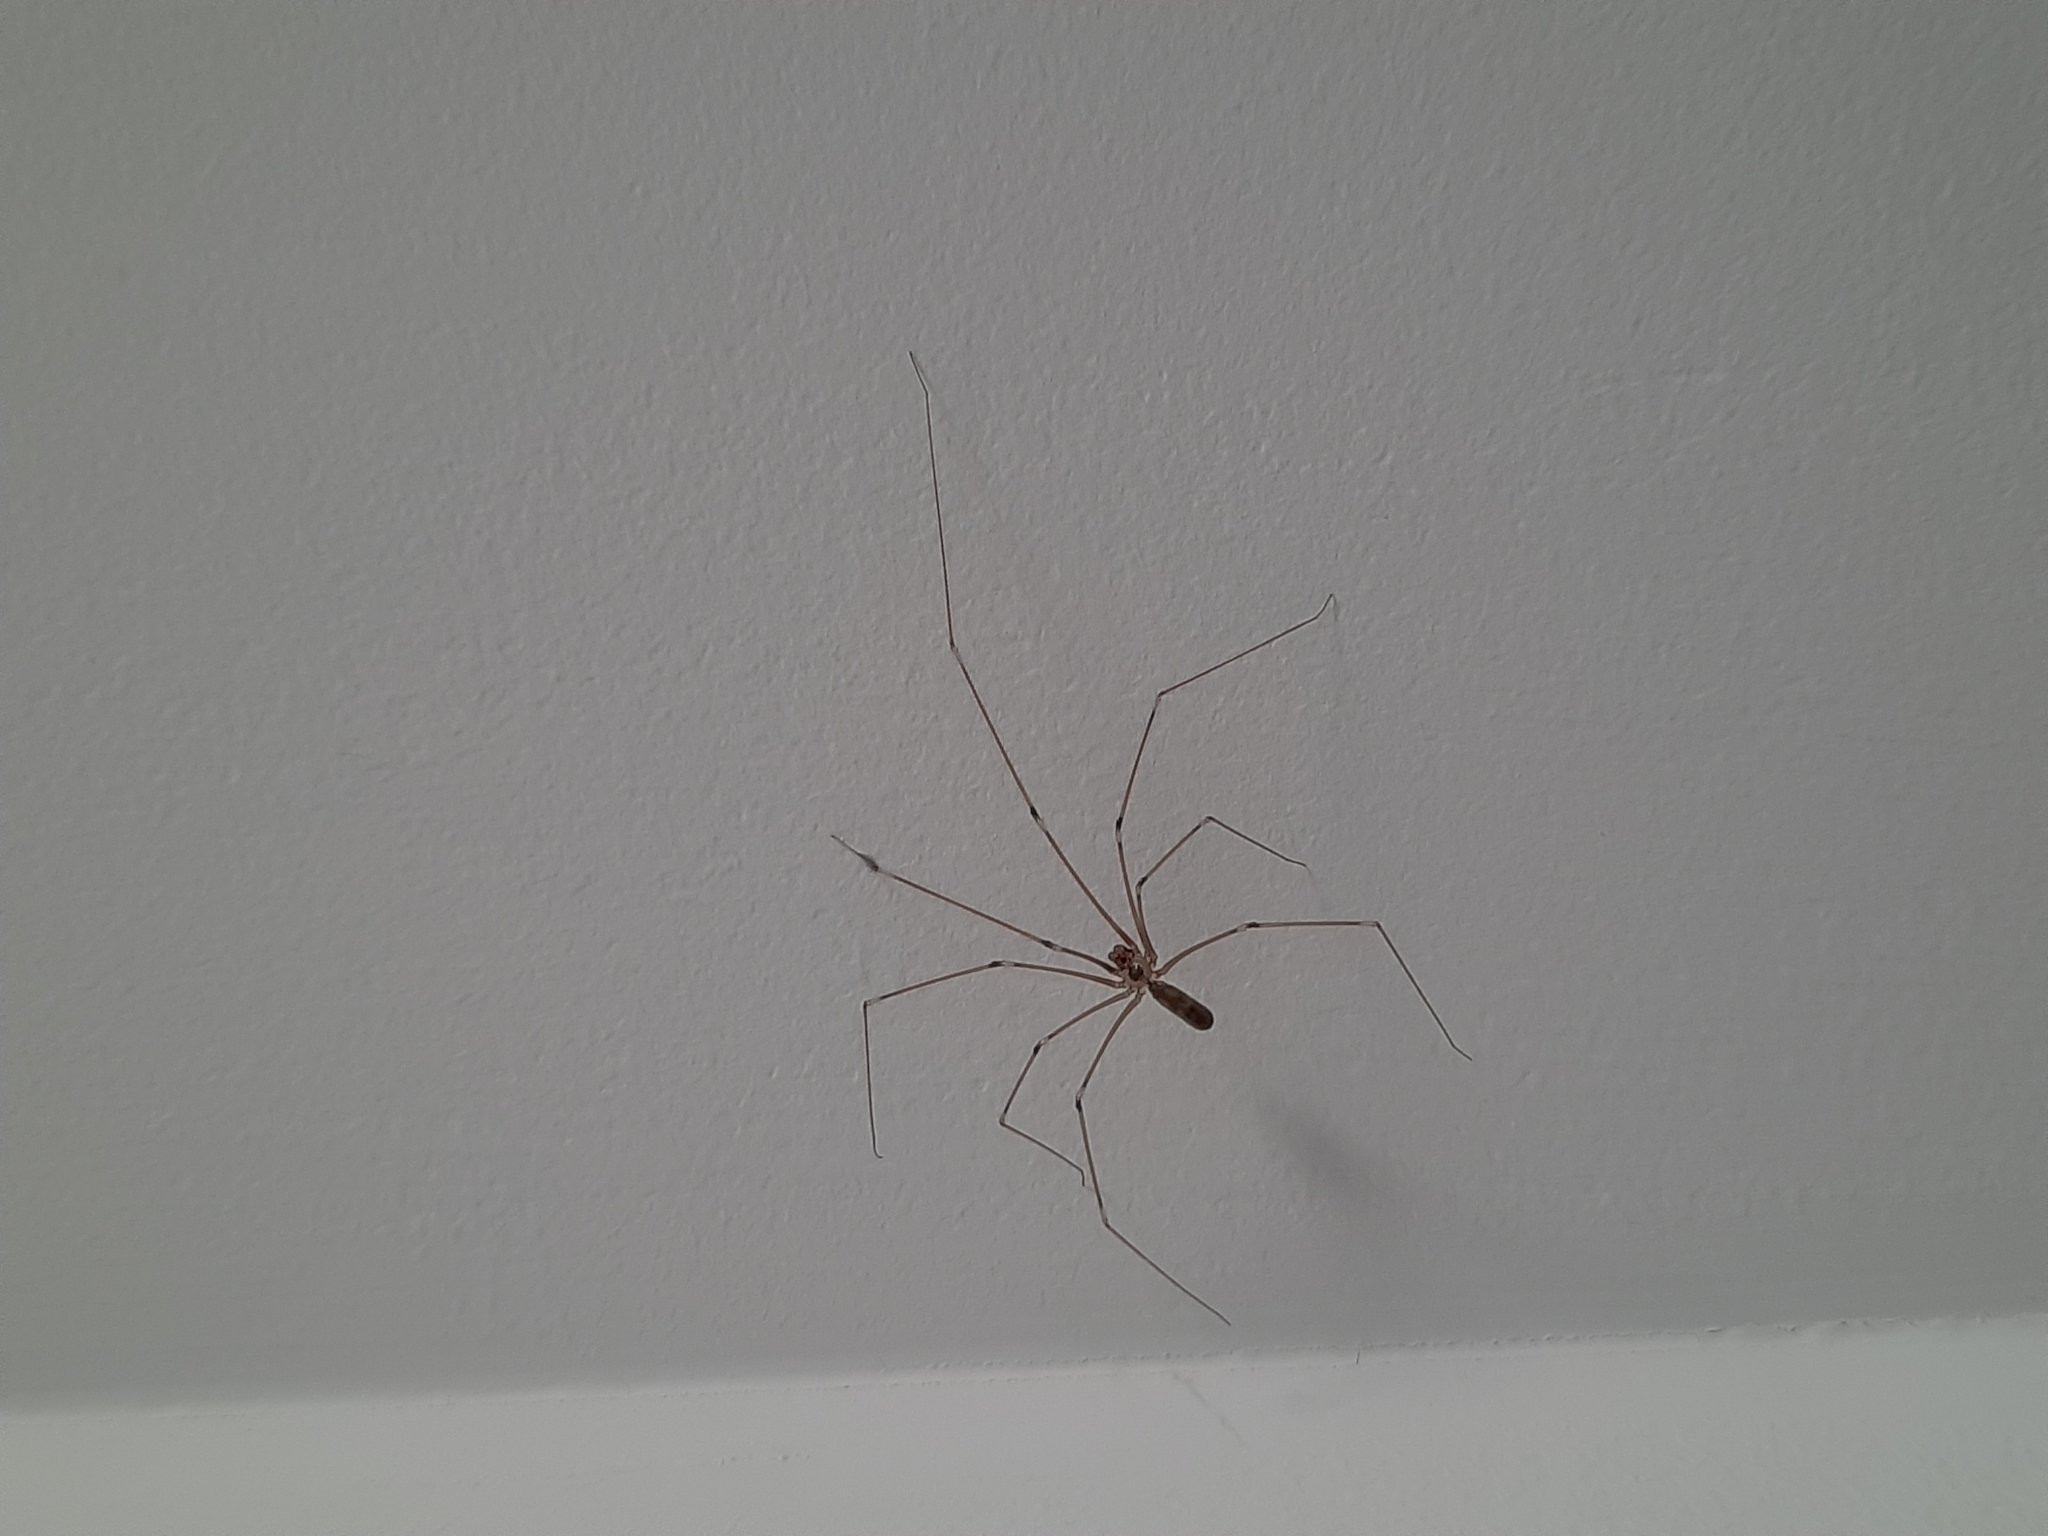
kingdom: Animalia
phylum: Arthropoda
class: Arachnida
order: Araneae
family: Pholcidae
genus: Pholcus
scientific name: Pholcus phalangioides
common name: Longbodied cellar spider
